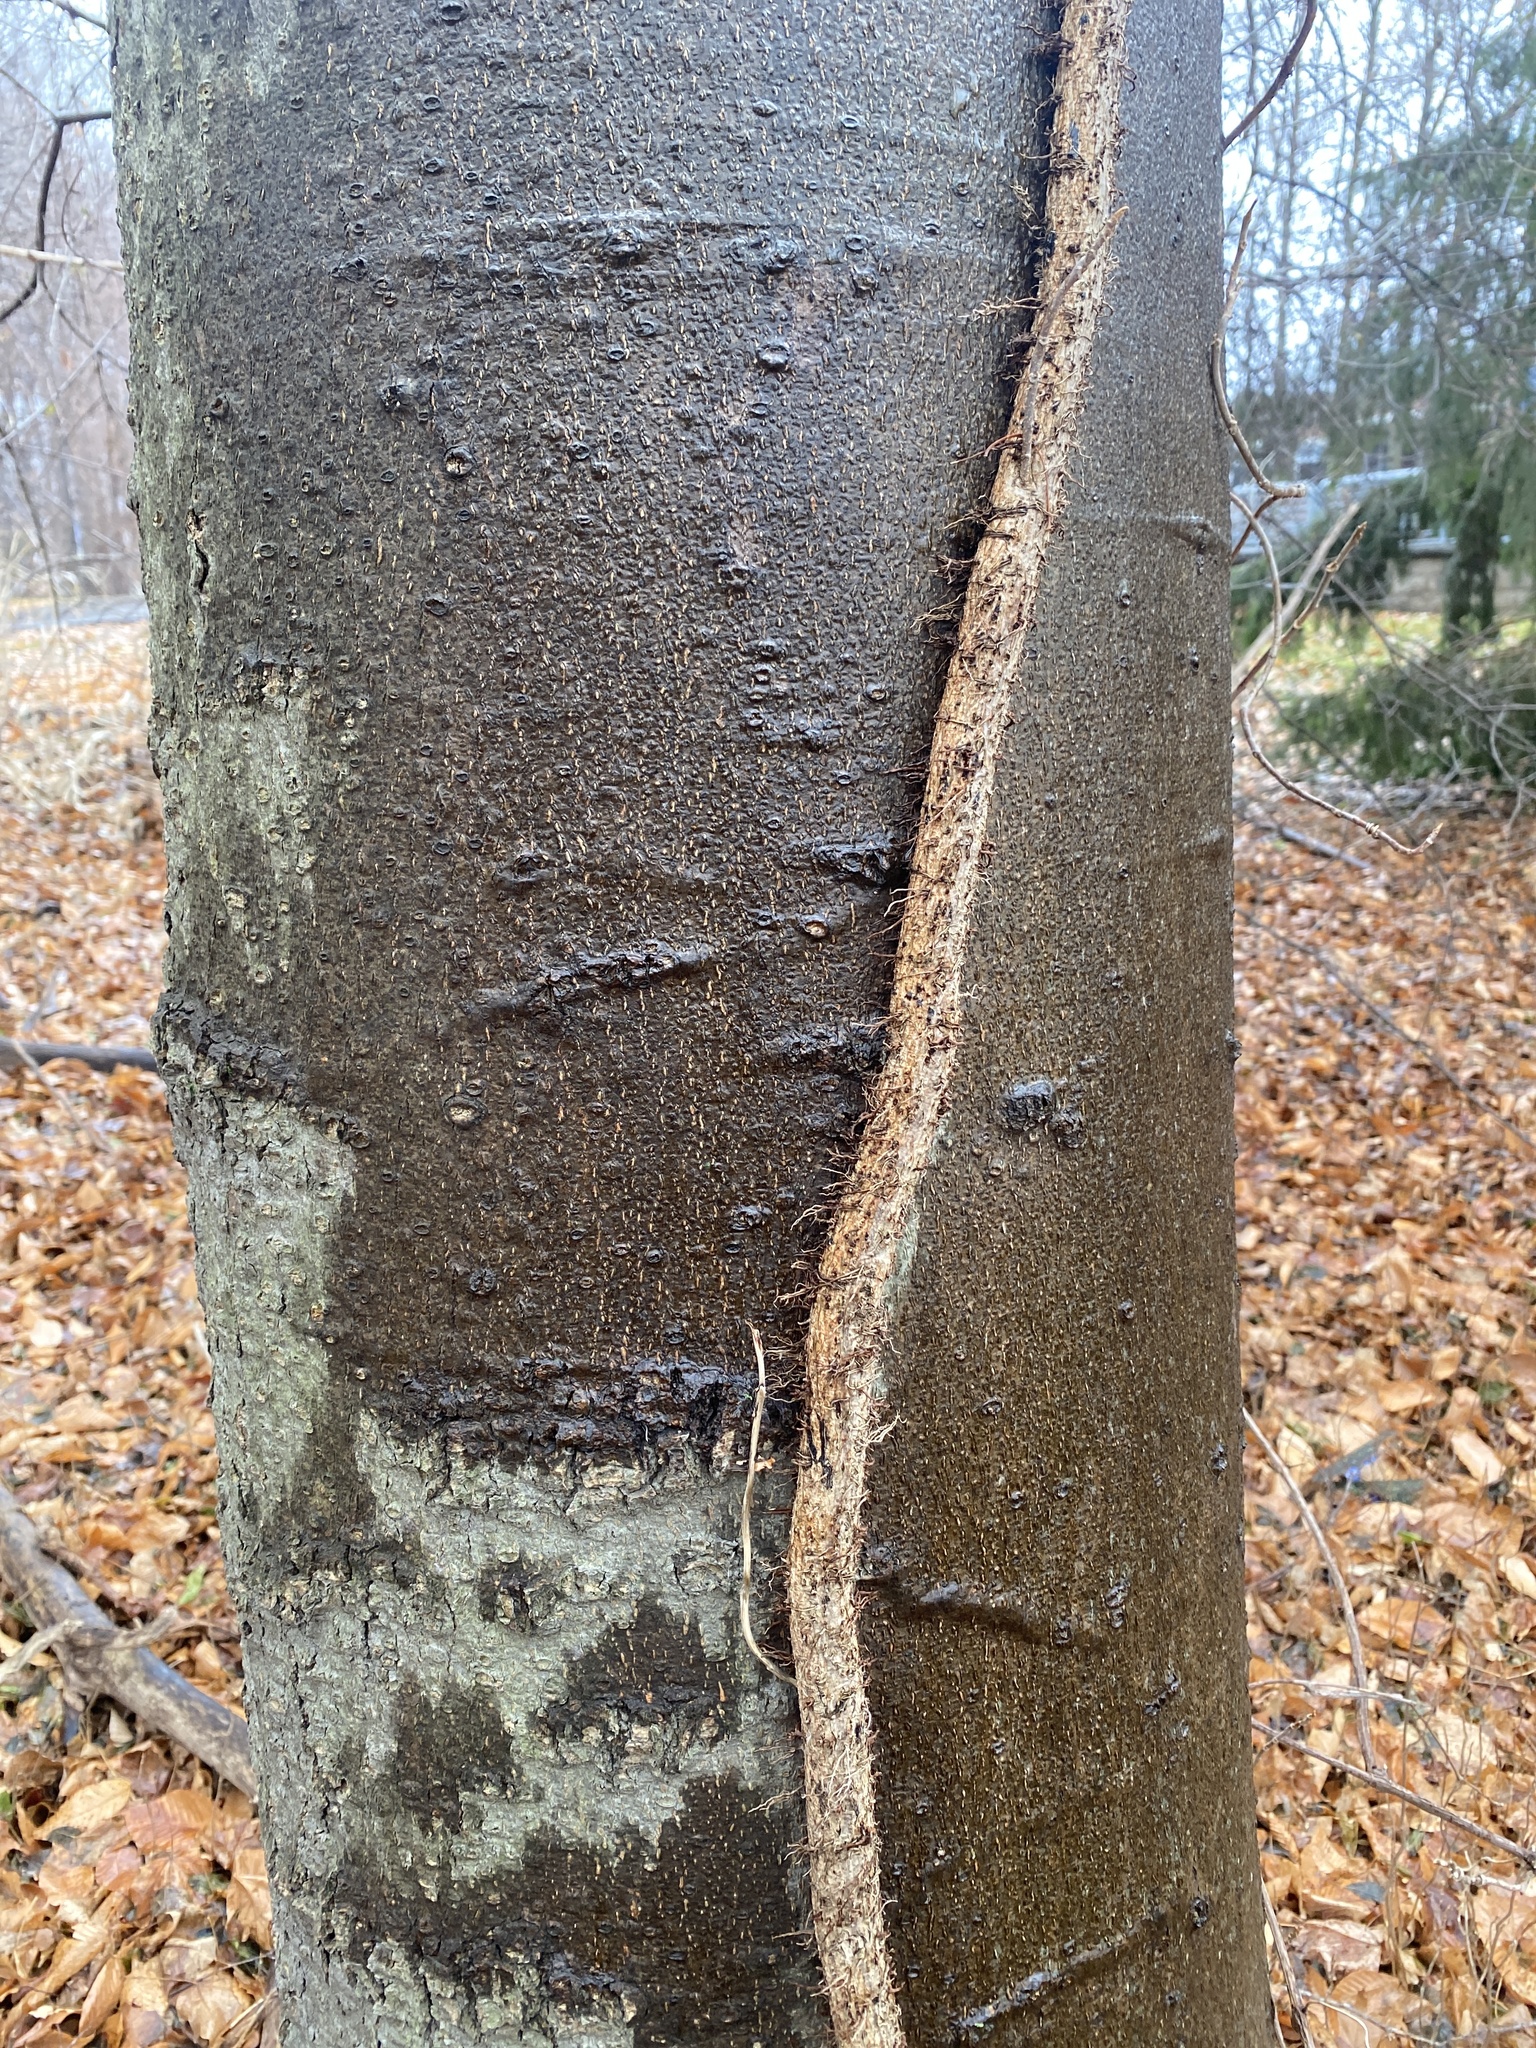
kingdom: Plantae
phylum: Tracheophyta
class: Magnoliopsida
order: Sapindales
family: Anacardiaceae
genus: Toxicodendron
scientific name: Toxicodendron radicans
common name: Poison ivy
